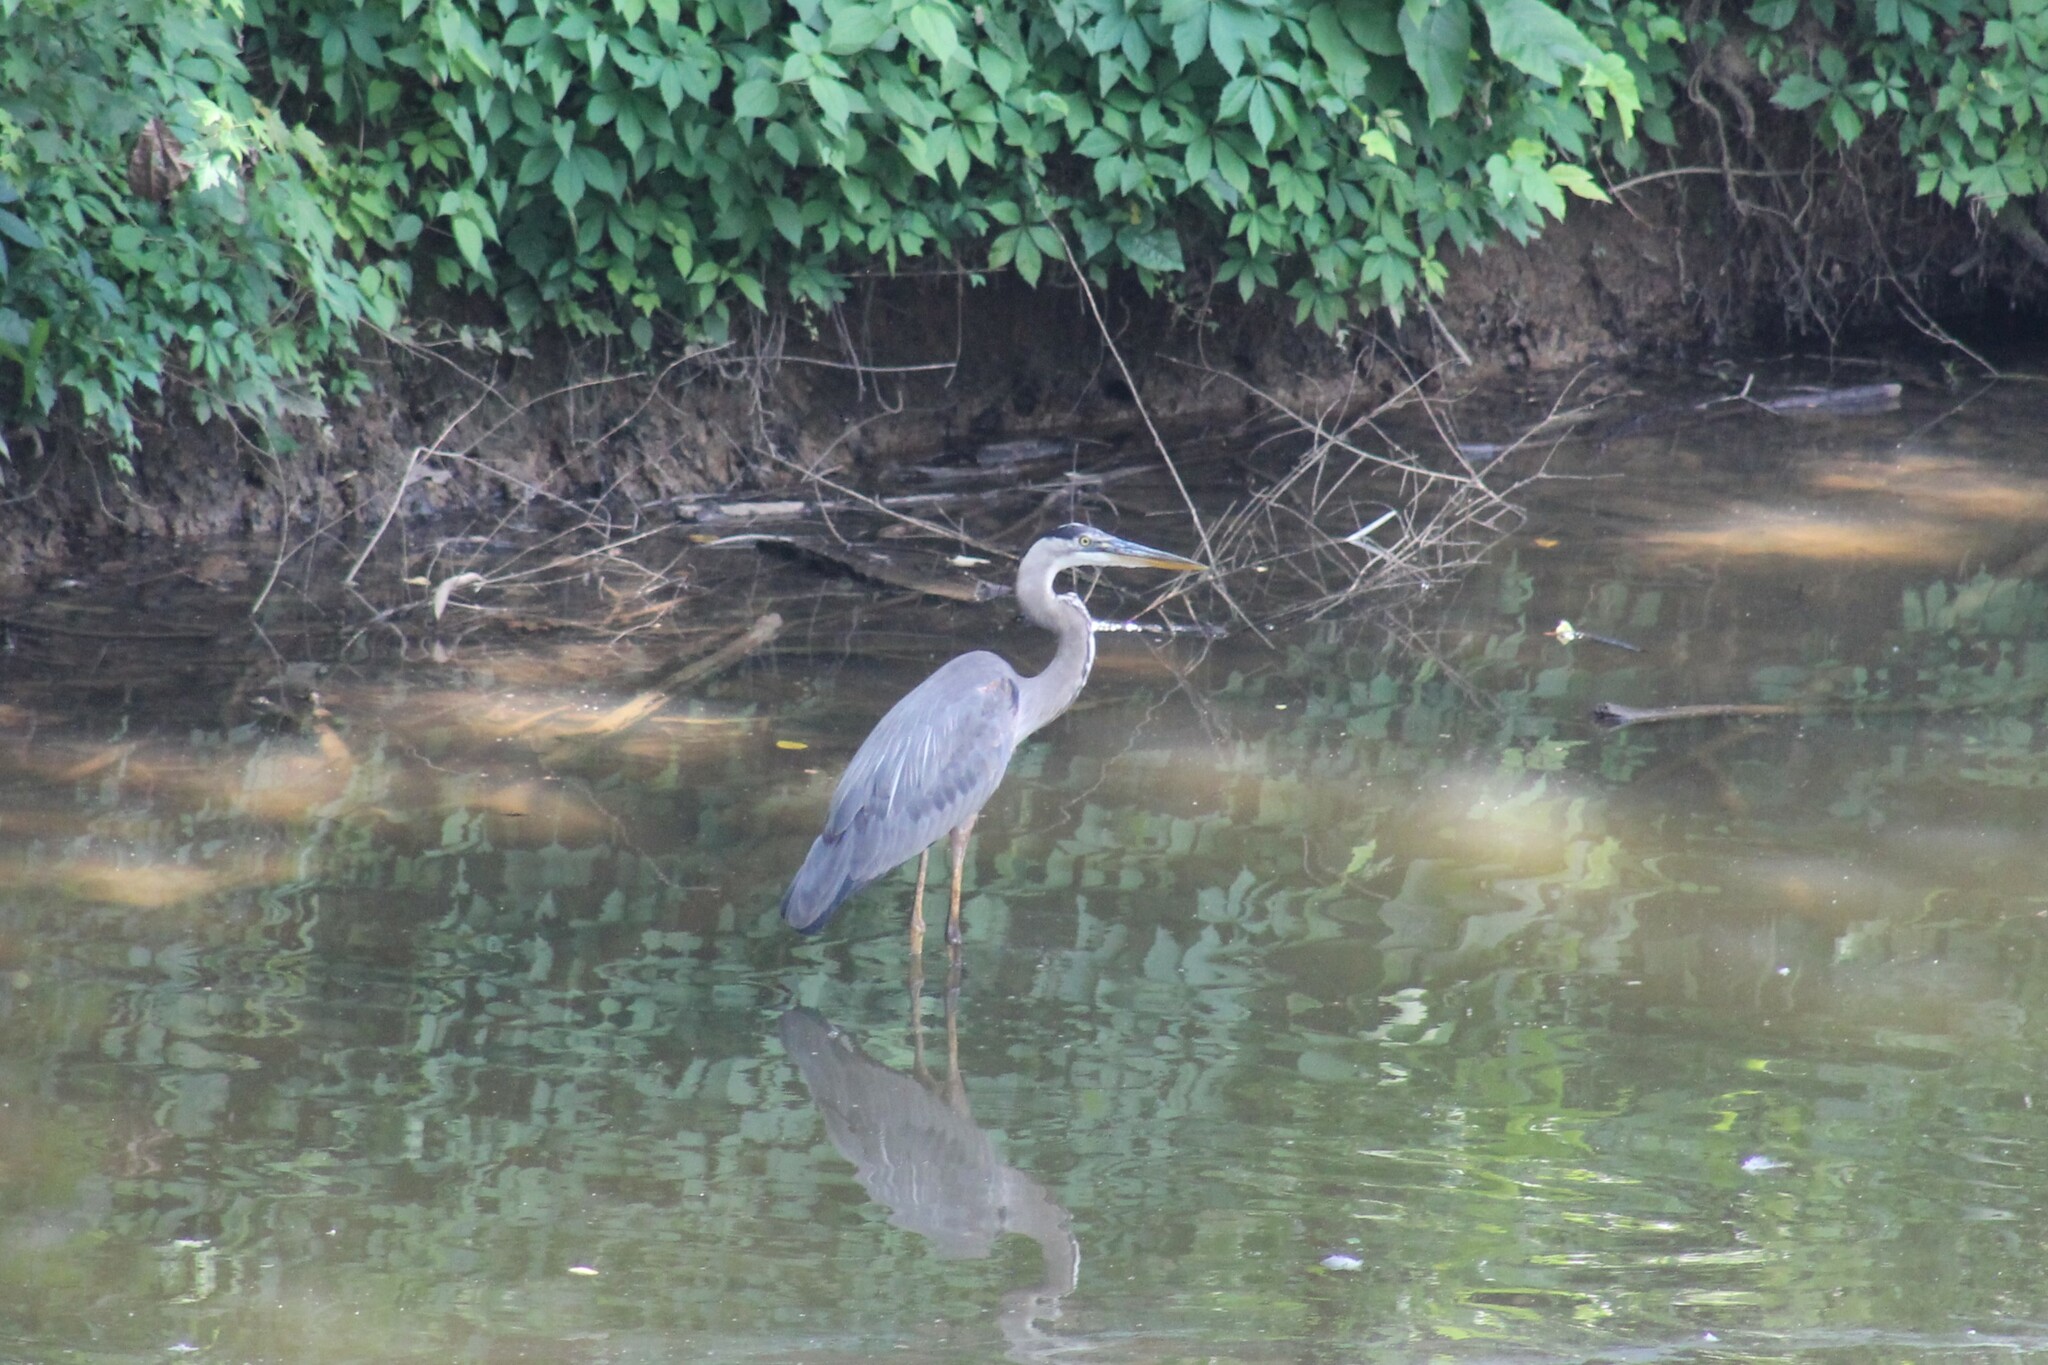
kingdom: Animalia
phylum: Chordata
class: Aves
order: Pelecaniformes
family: Ardeidae
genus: Ardea
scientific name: Ardea herodias
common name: Great blue heron
